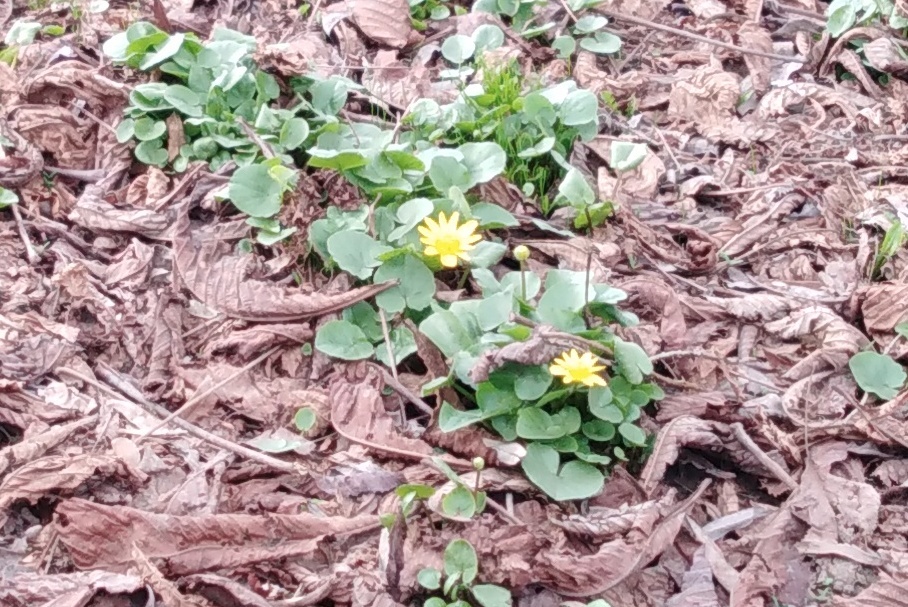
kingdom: Plantae
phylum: Tracheophyta
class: Magnoliopsida
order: Ranunculales
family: Ranunculaceae
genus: Ficaria
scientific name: Ficaria verna
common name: Lesser celandine
